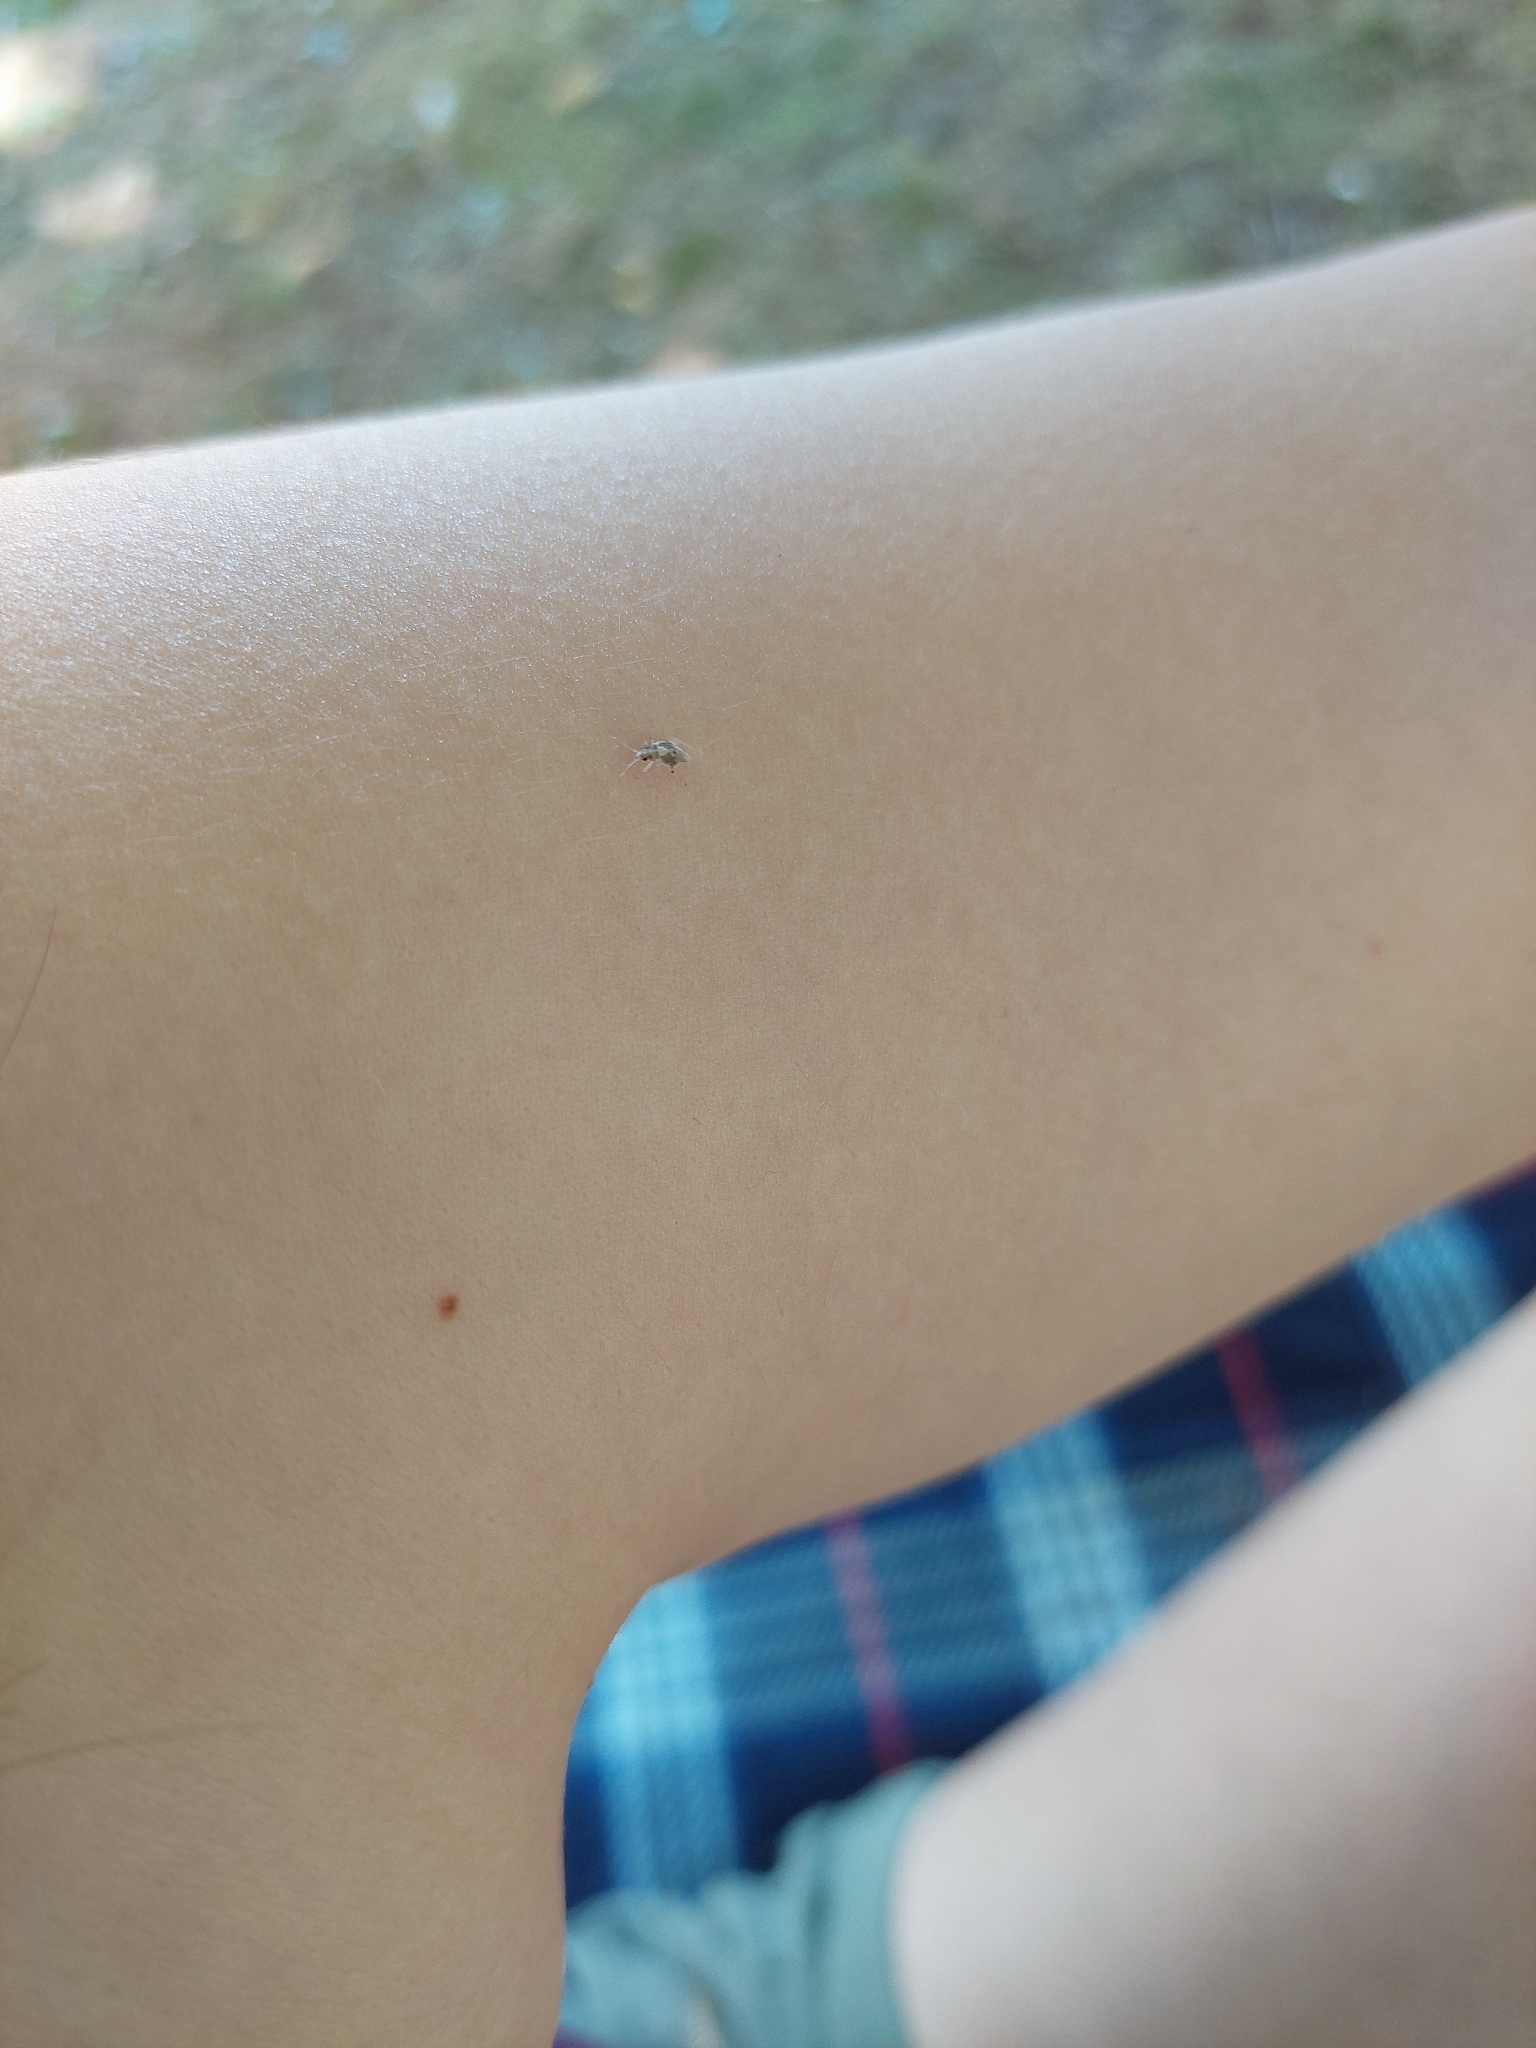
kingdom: Animalia
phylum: Arthropoda
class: Insecta
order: Hemiptera
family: Miridae
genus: Deraeocoris
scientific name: Deraeocoris lutescens
